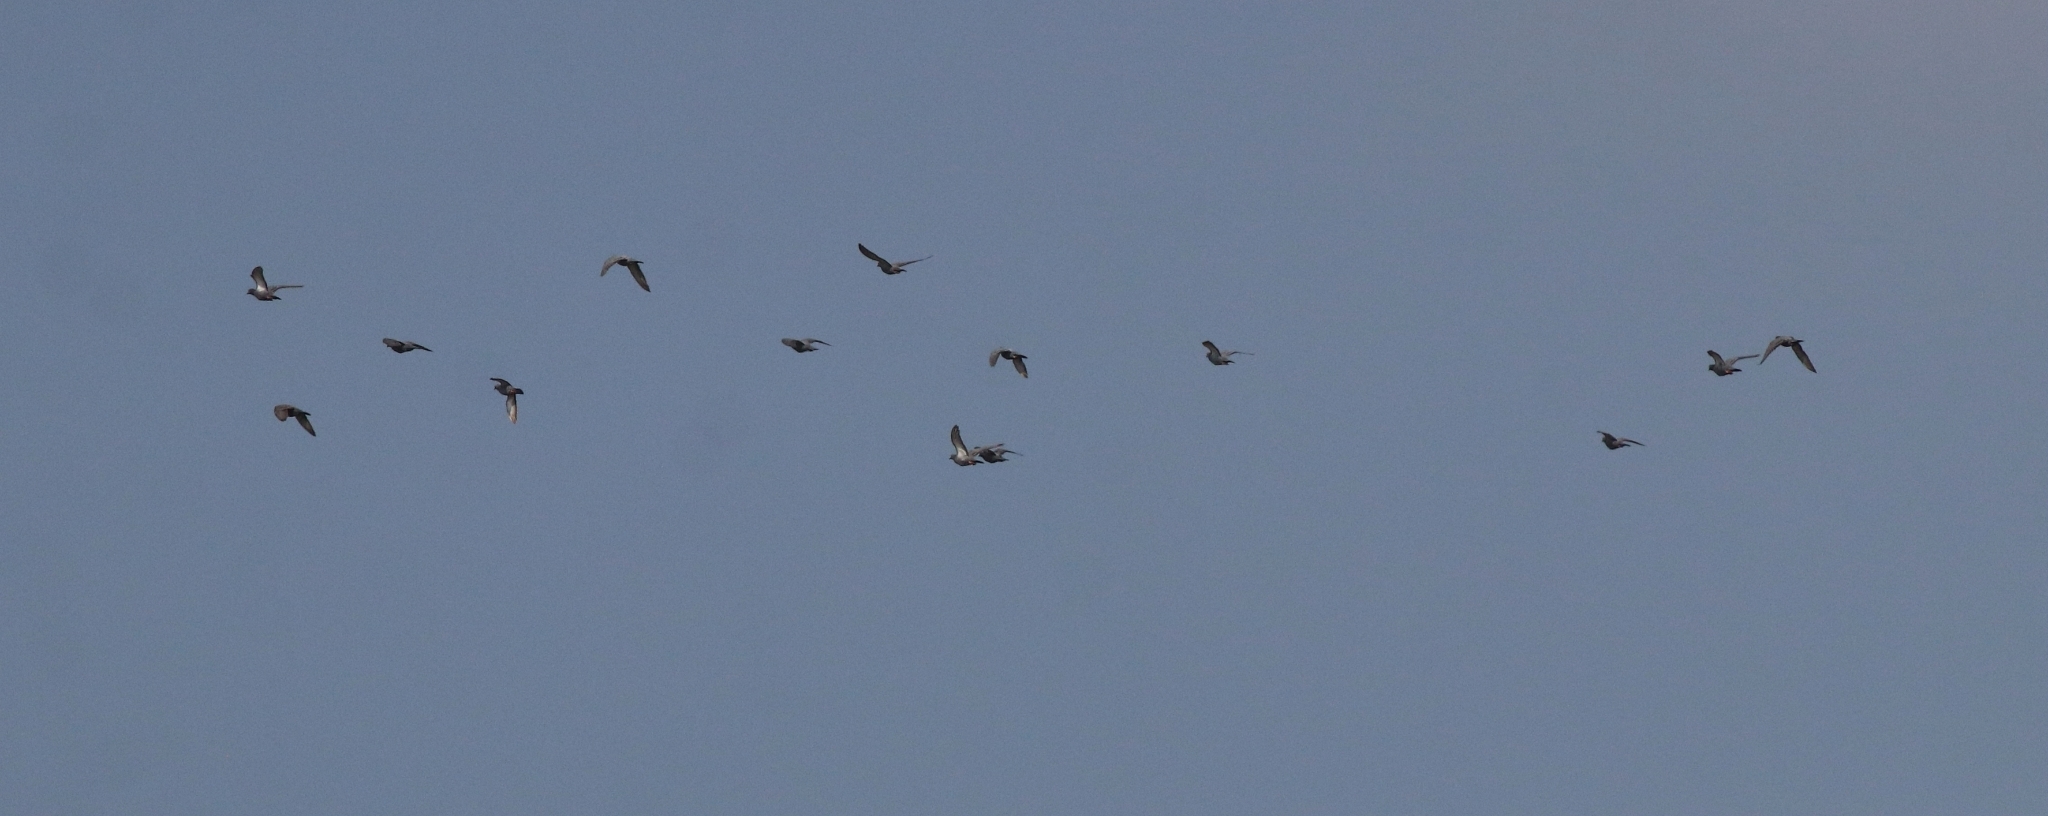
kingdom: Animalia
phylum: Chordata
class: Aves
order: Columbiformes
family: Columbidae
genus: Columba
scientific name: Columba livia
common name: Rock pigeon
